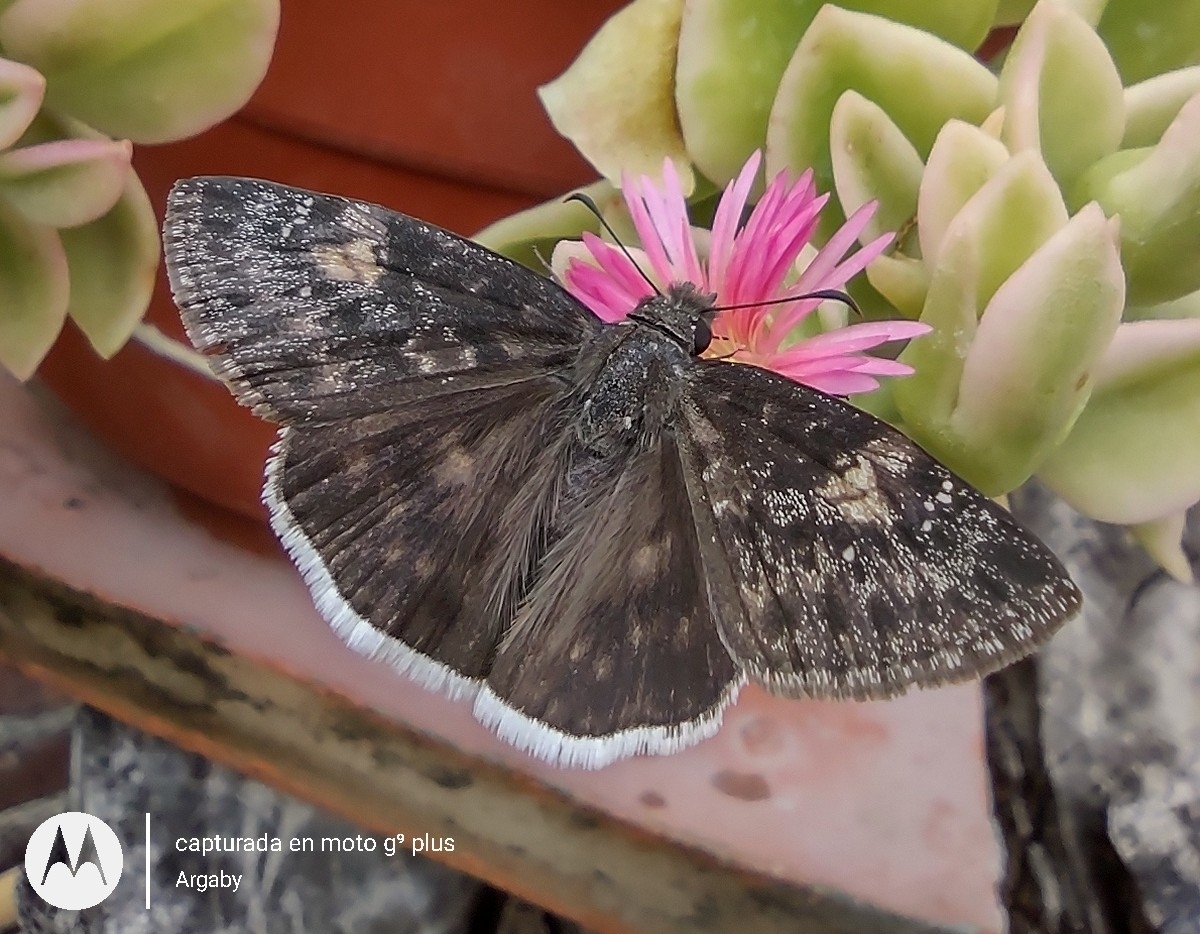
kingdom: Animalia
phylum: Arthropoda
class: Insecta
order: Lepidoptera
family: Hesperiidae
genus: Erynnis
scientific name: Erynnis funeralis
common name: Funereal duskywing
